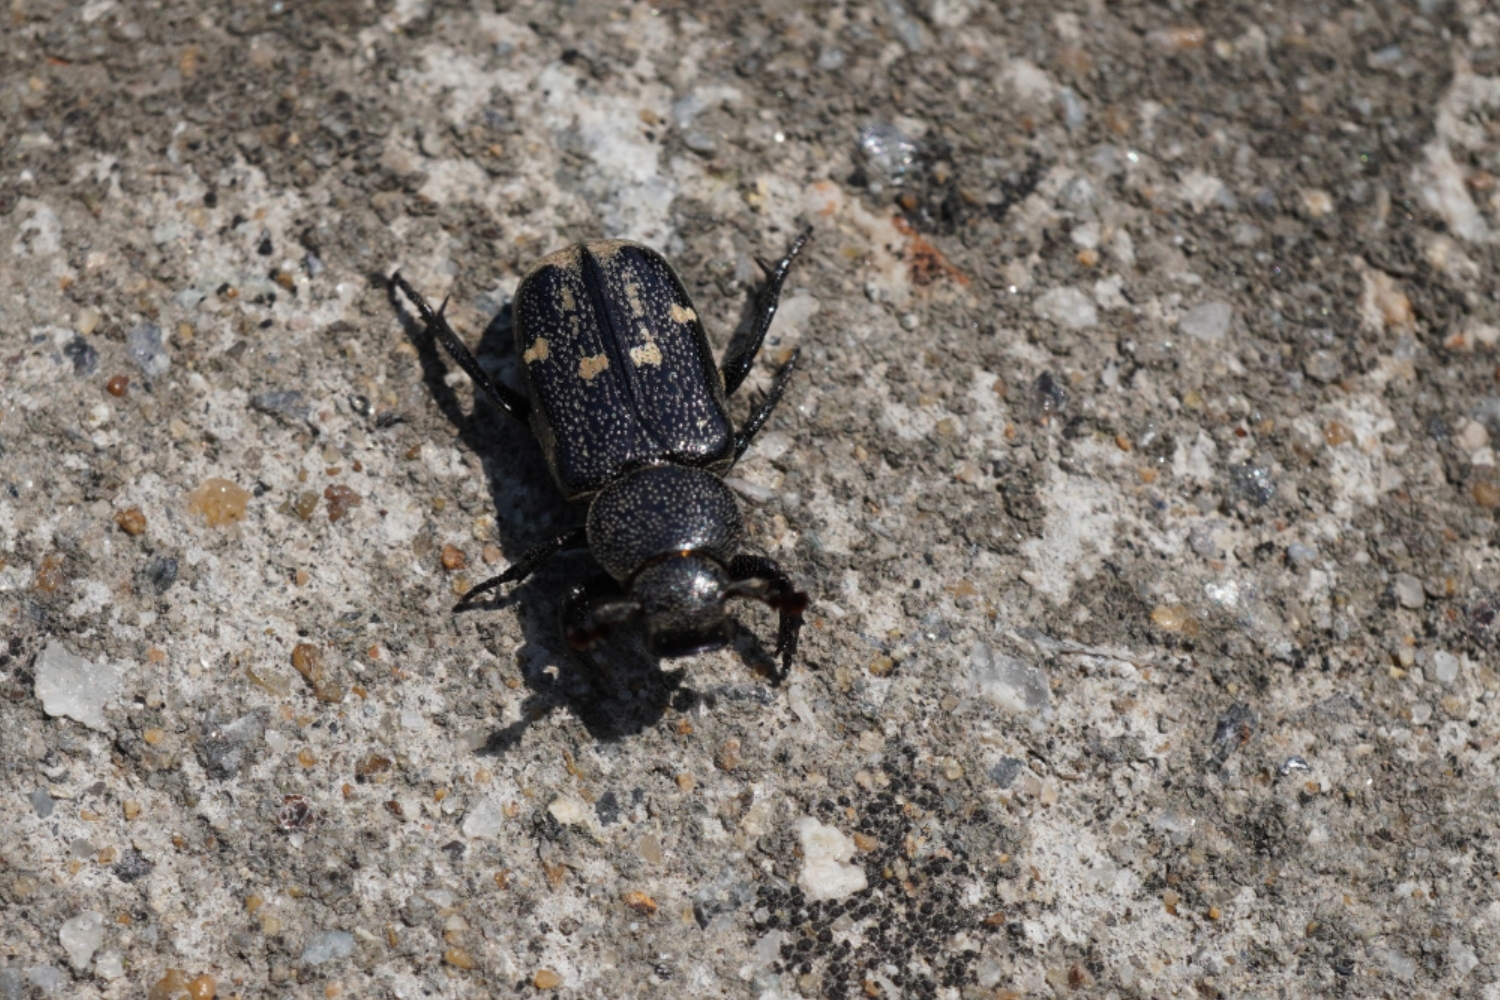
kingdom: Animalia
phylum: Arthropoda
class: Insecta
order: Coleoptera
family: Scarabaeidae
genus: Clinterocera
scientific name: Clinterocera scabrosa
